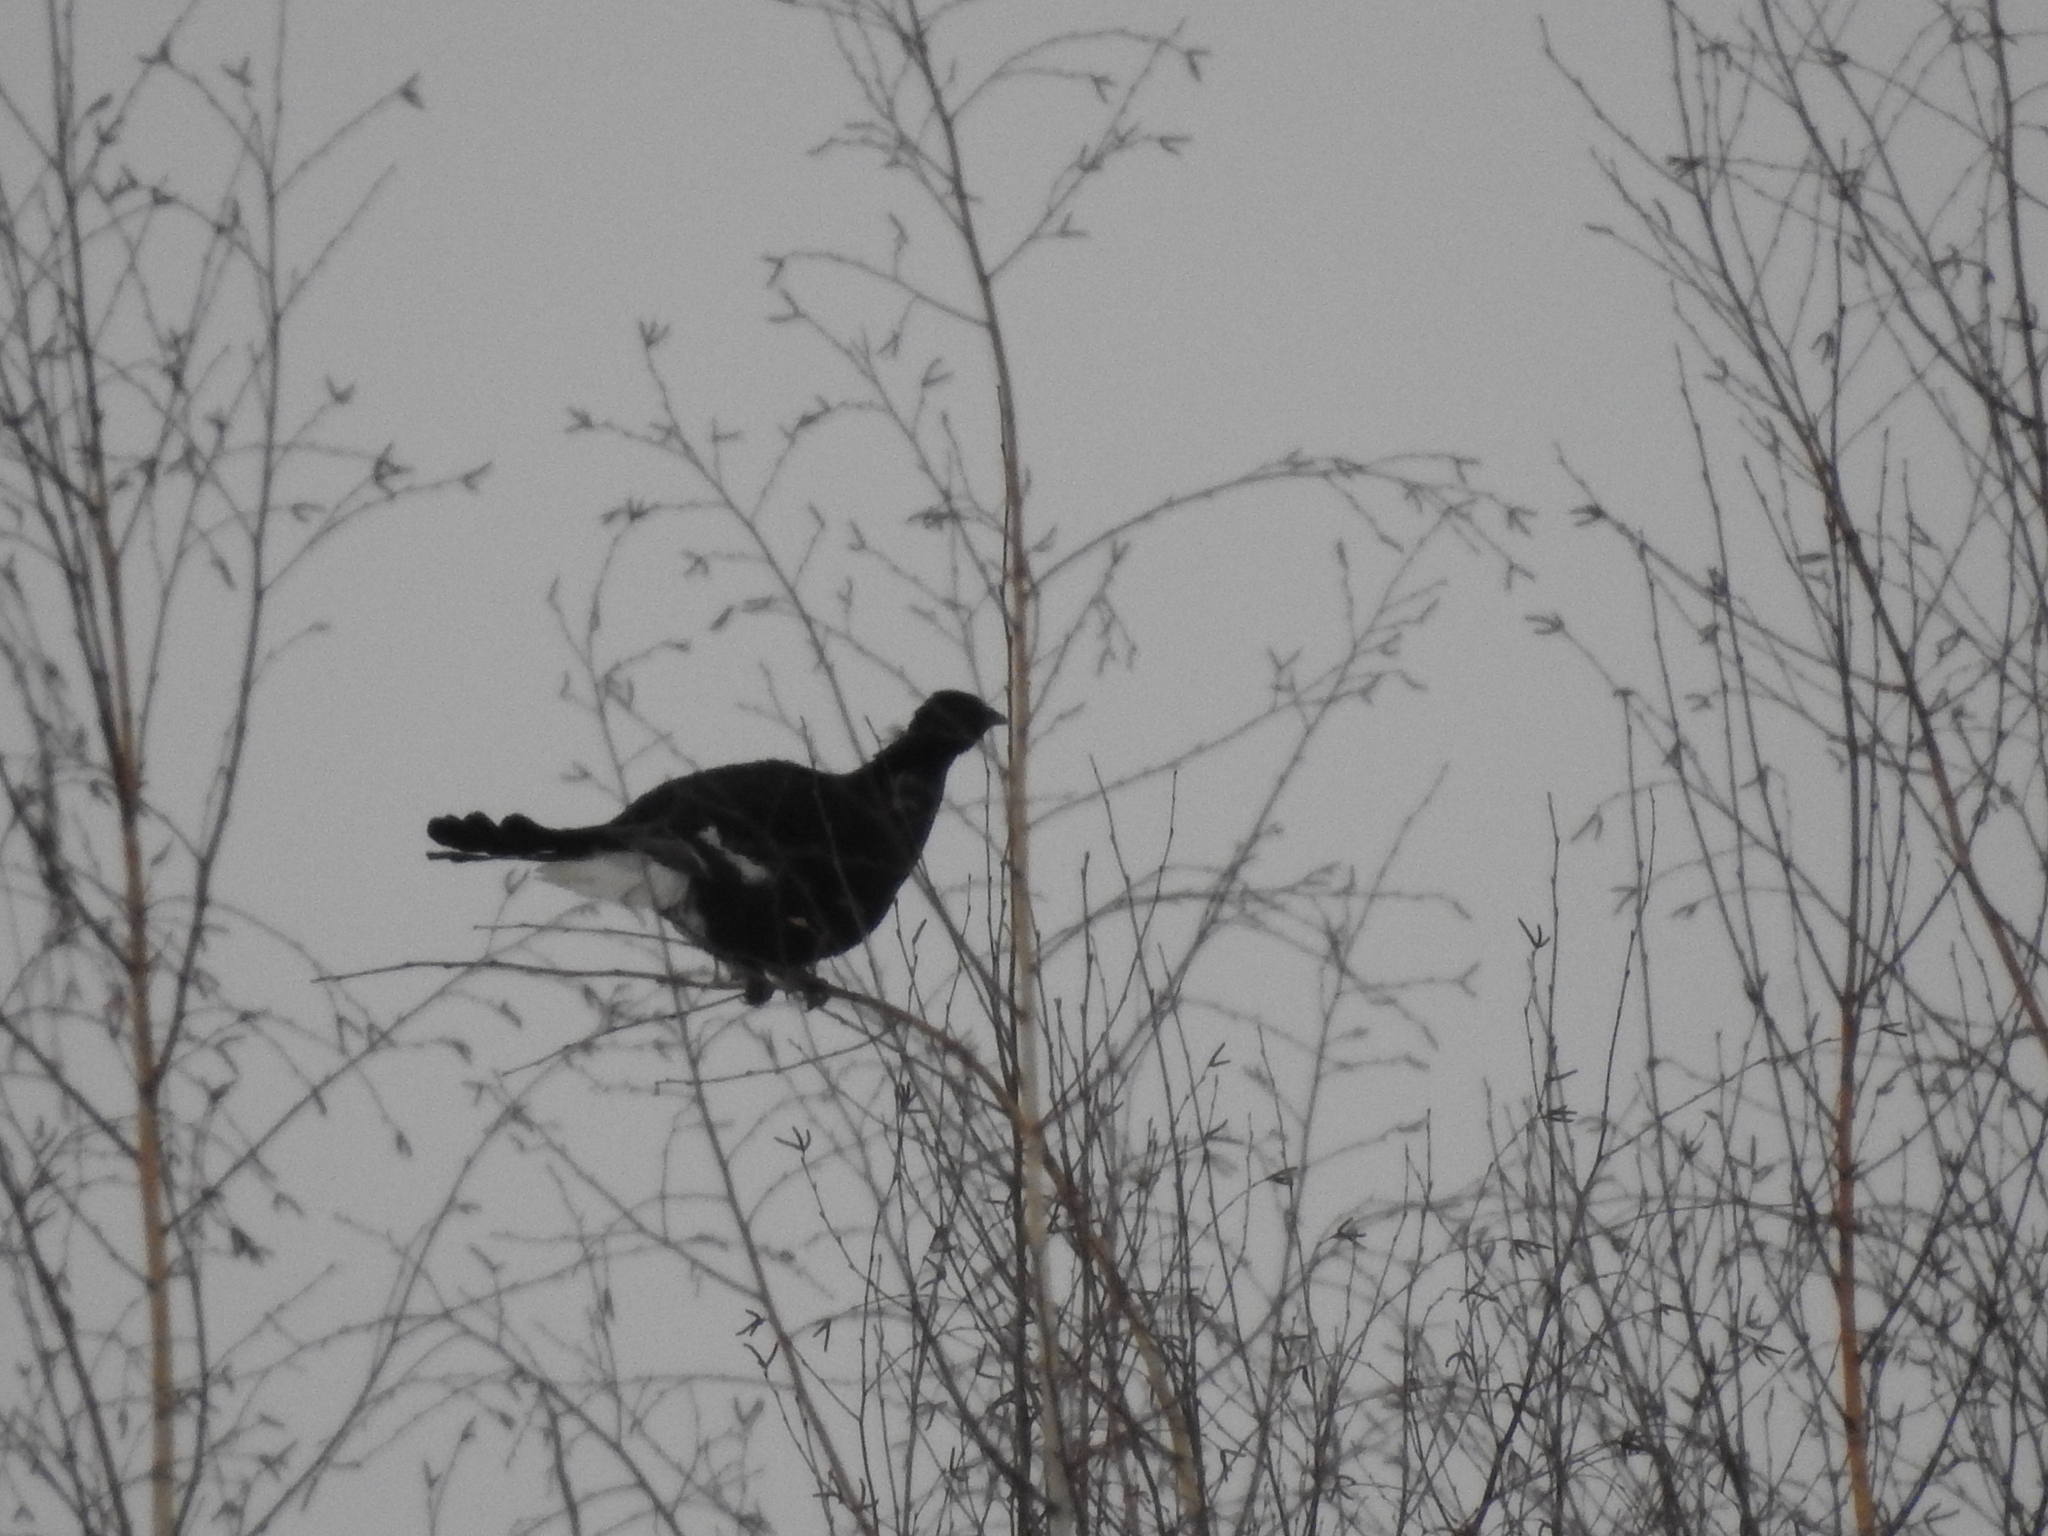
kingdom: Animalia
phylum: Chordata
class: Aves
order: Galliformes
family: Phasianidae
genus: Lyrurus
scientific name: Lyrurus tetrix
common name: Black grouse
